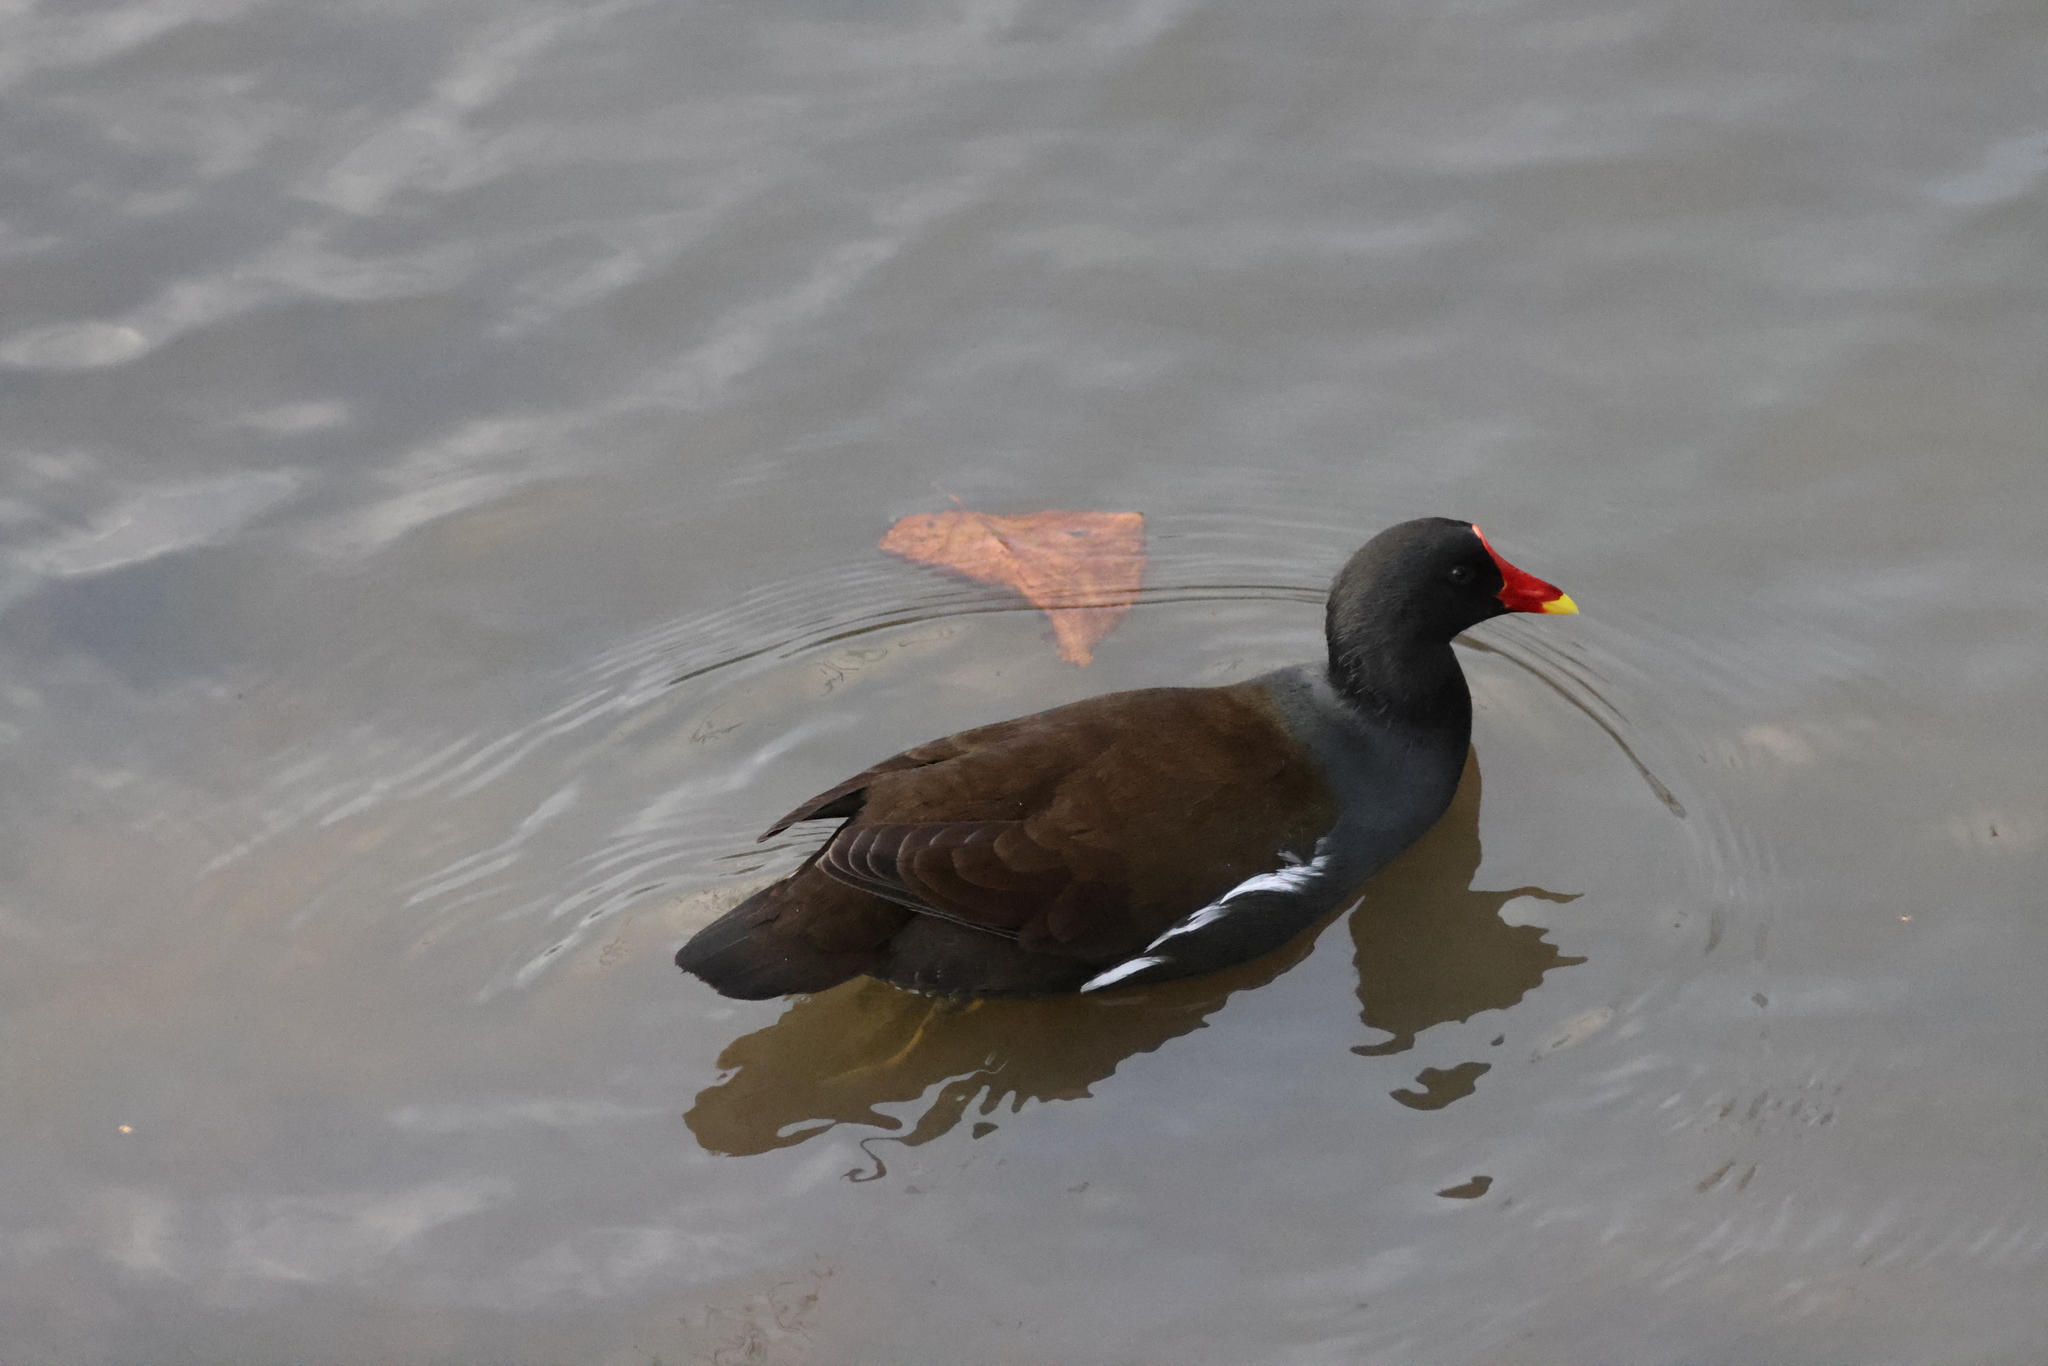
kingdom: Animalia
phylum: Chordata
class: Aves
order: Gruiformes
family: Rallidae
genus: Gallinula
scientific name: Gallinula chloropus
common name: Common moorhen
